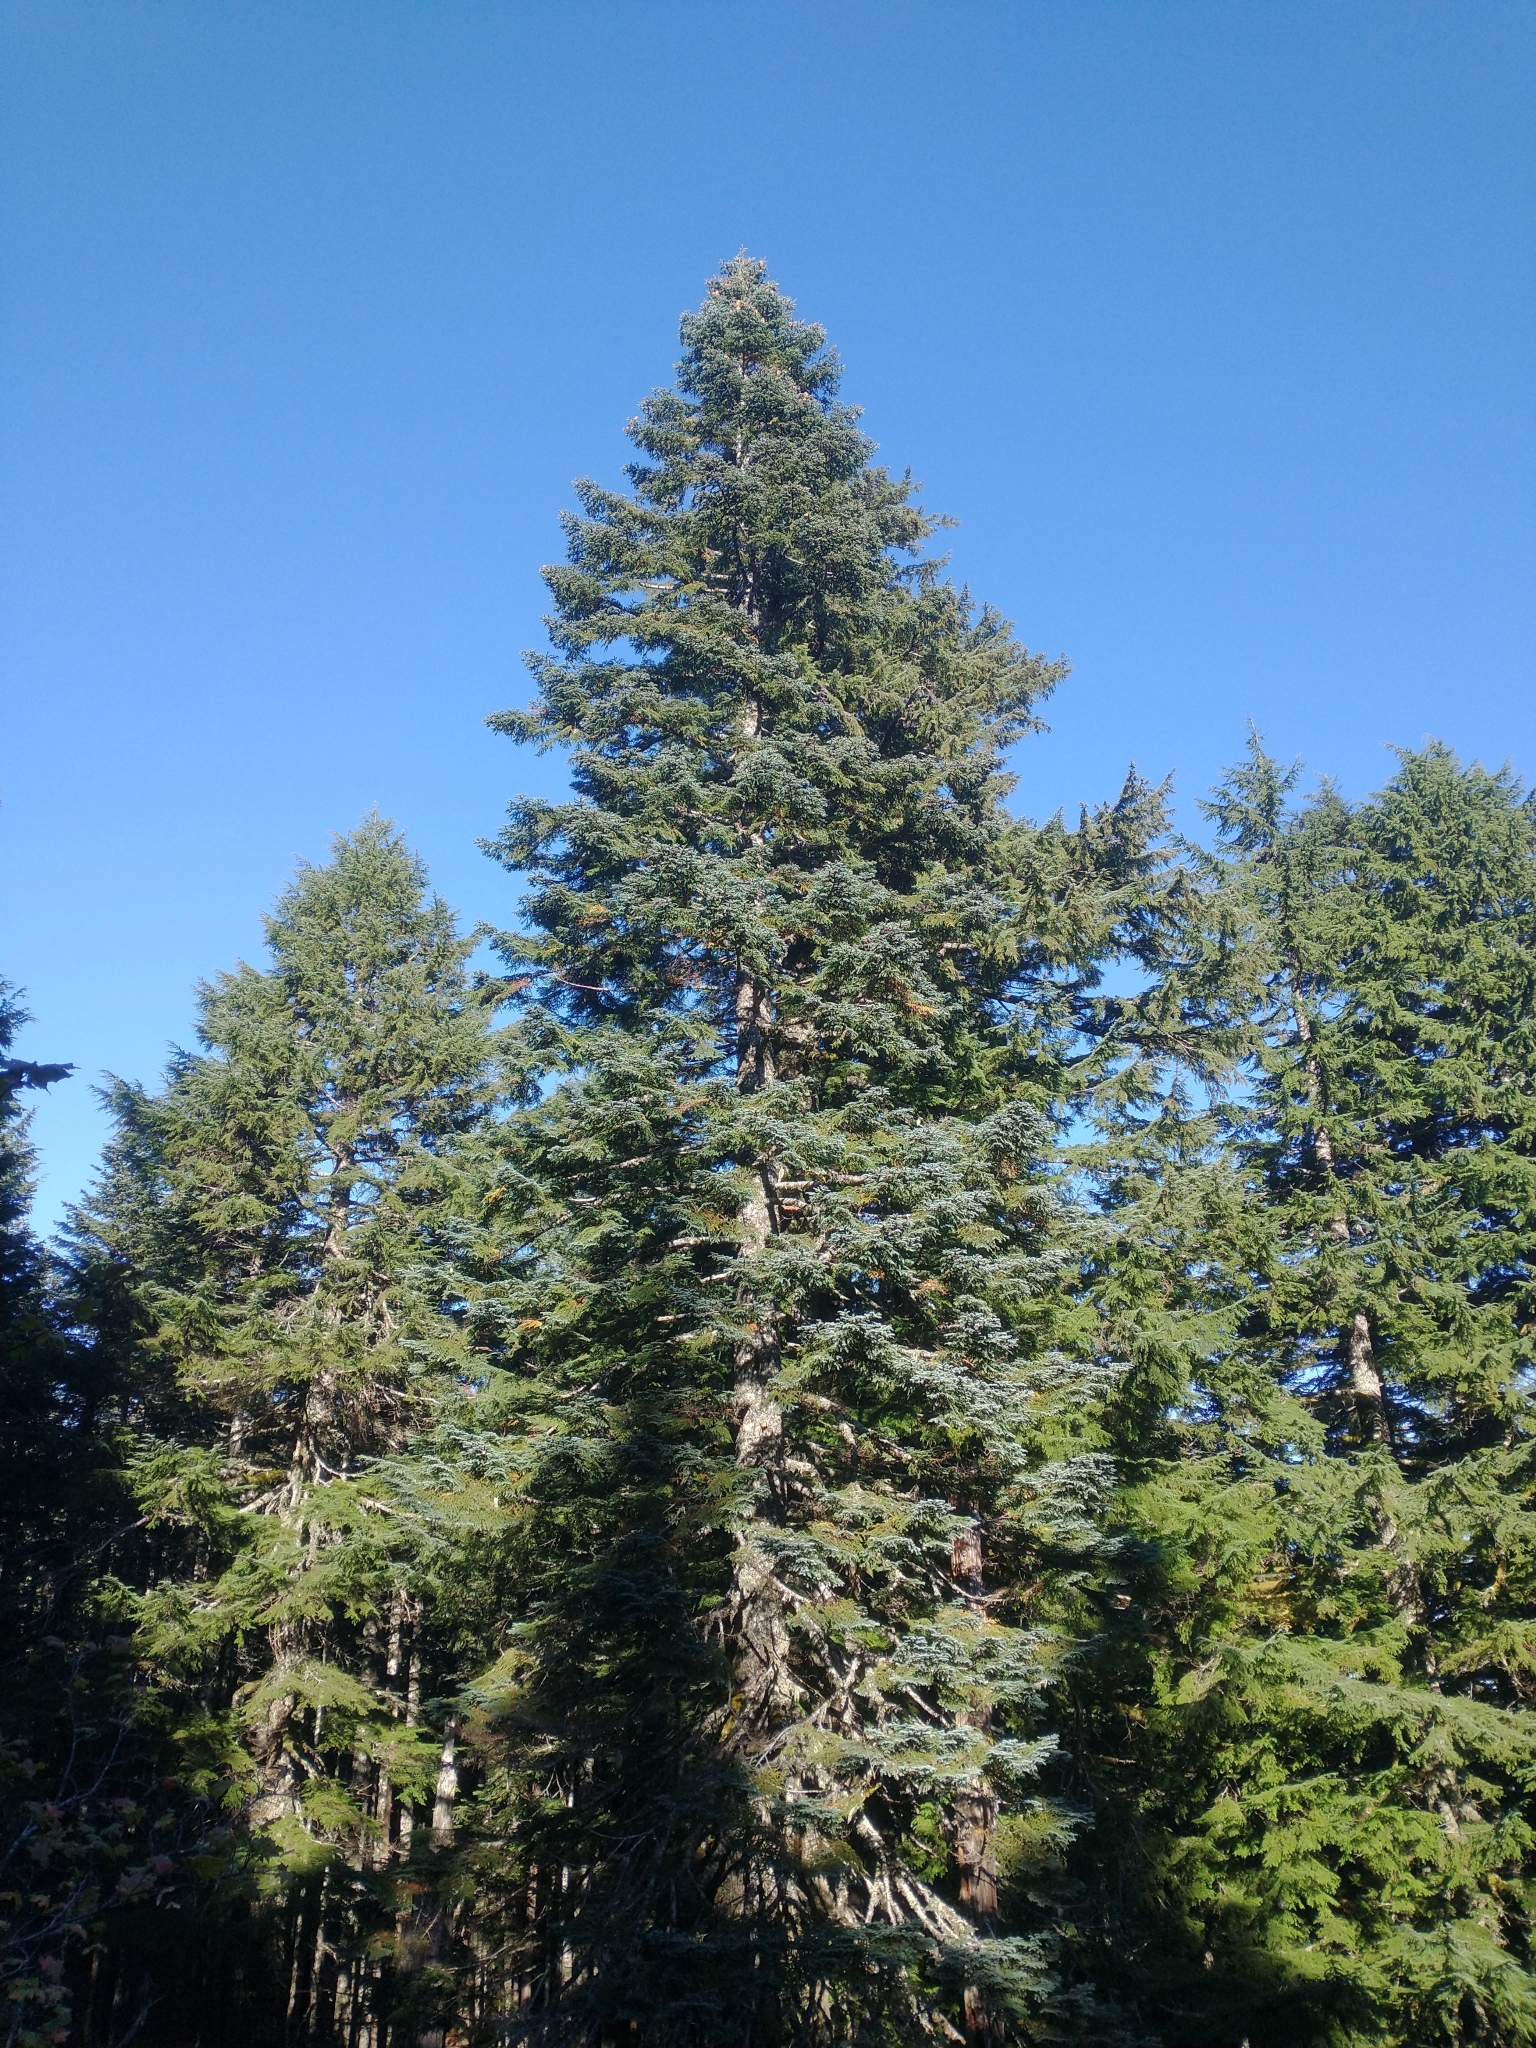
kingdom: Plantae
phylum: Tracheophyta
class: Pinopsida
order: Pinales
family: Pinaceae
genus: Abies
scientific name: Abies procera
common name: Noble fir
